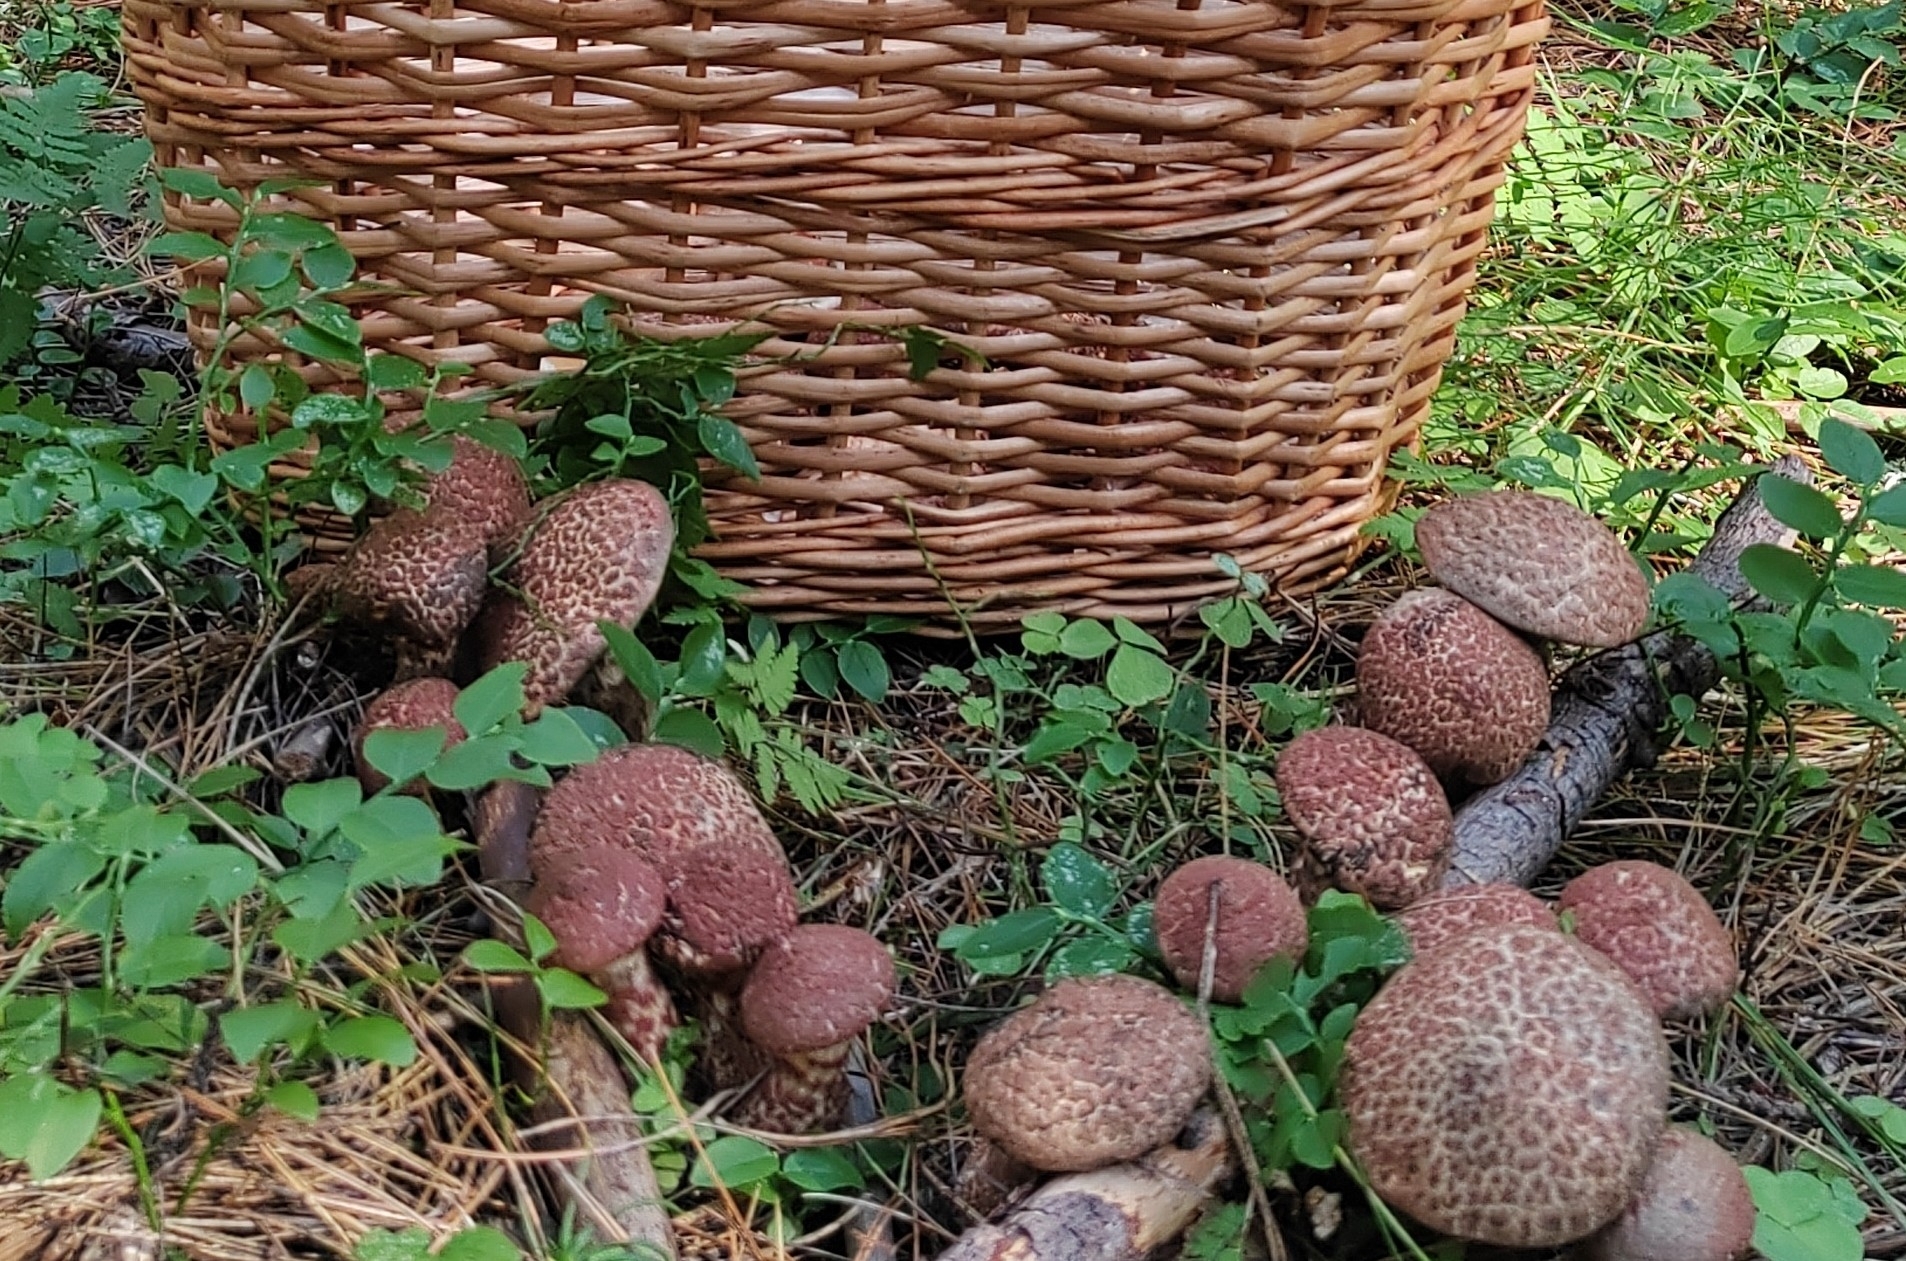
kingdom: Fungi
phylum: Basidiomycota
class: Agaricomycetes
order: Boletales
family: Suillaceae
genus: Suillus
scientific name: Suillus spraguei
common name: Painted suillus
